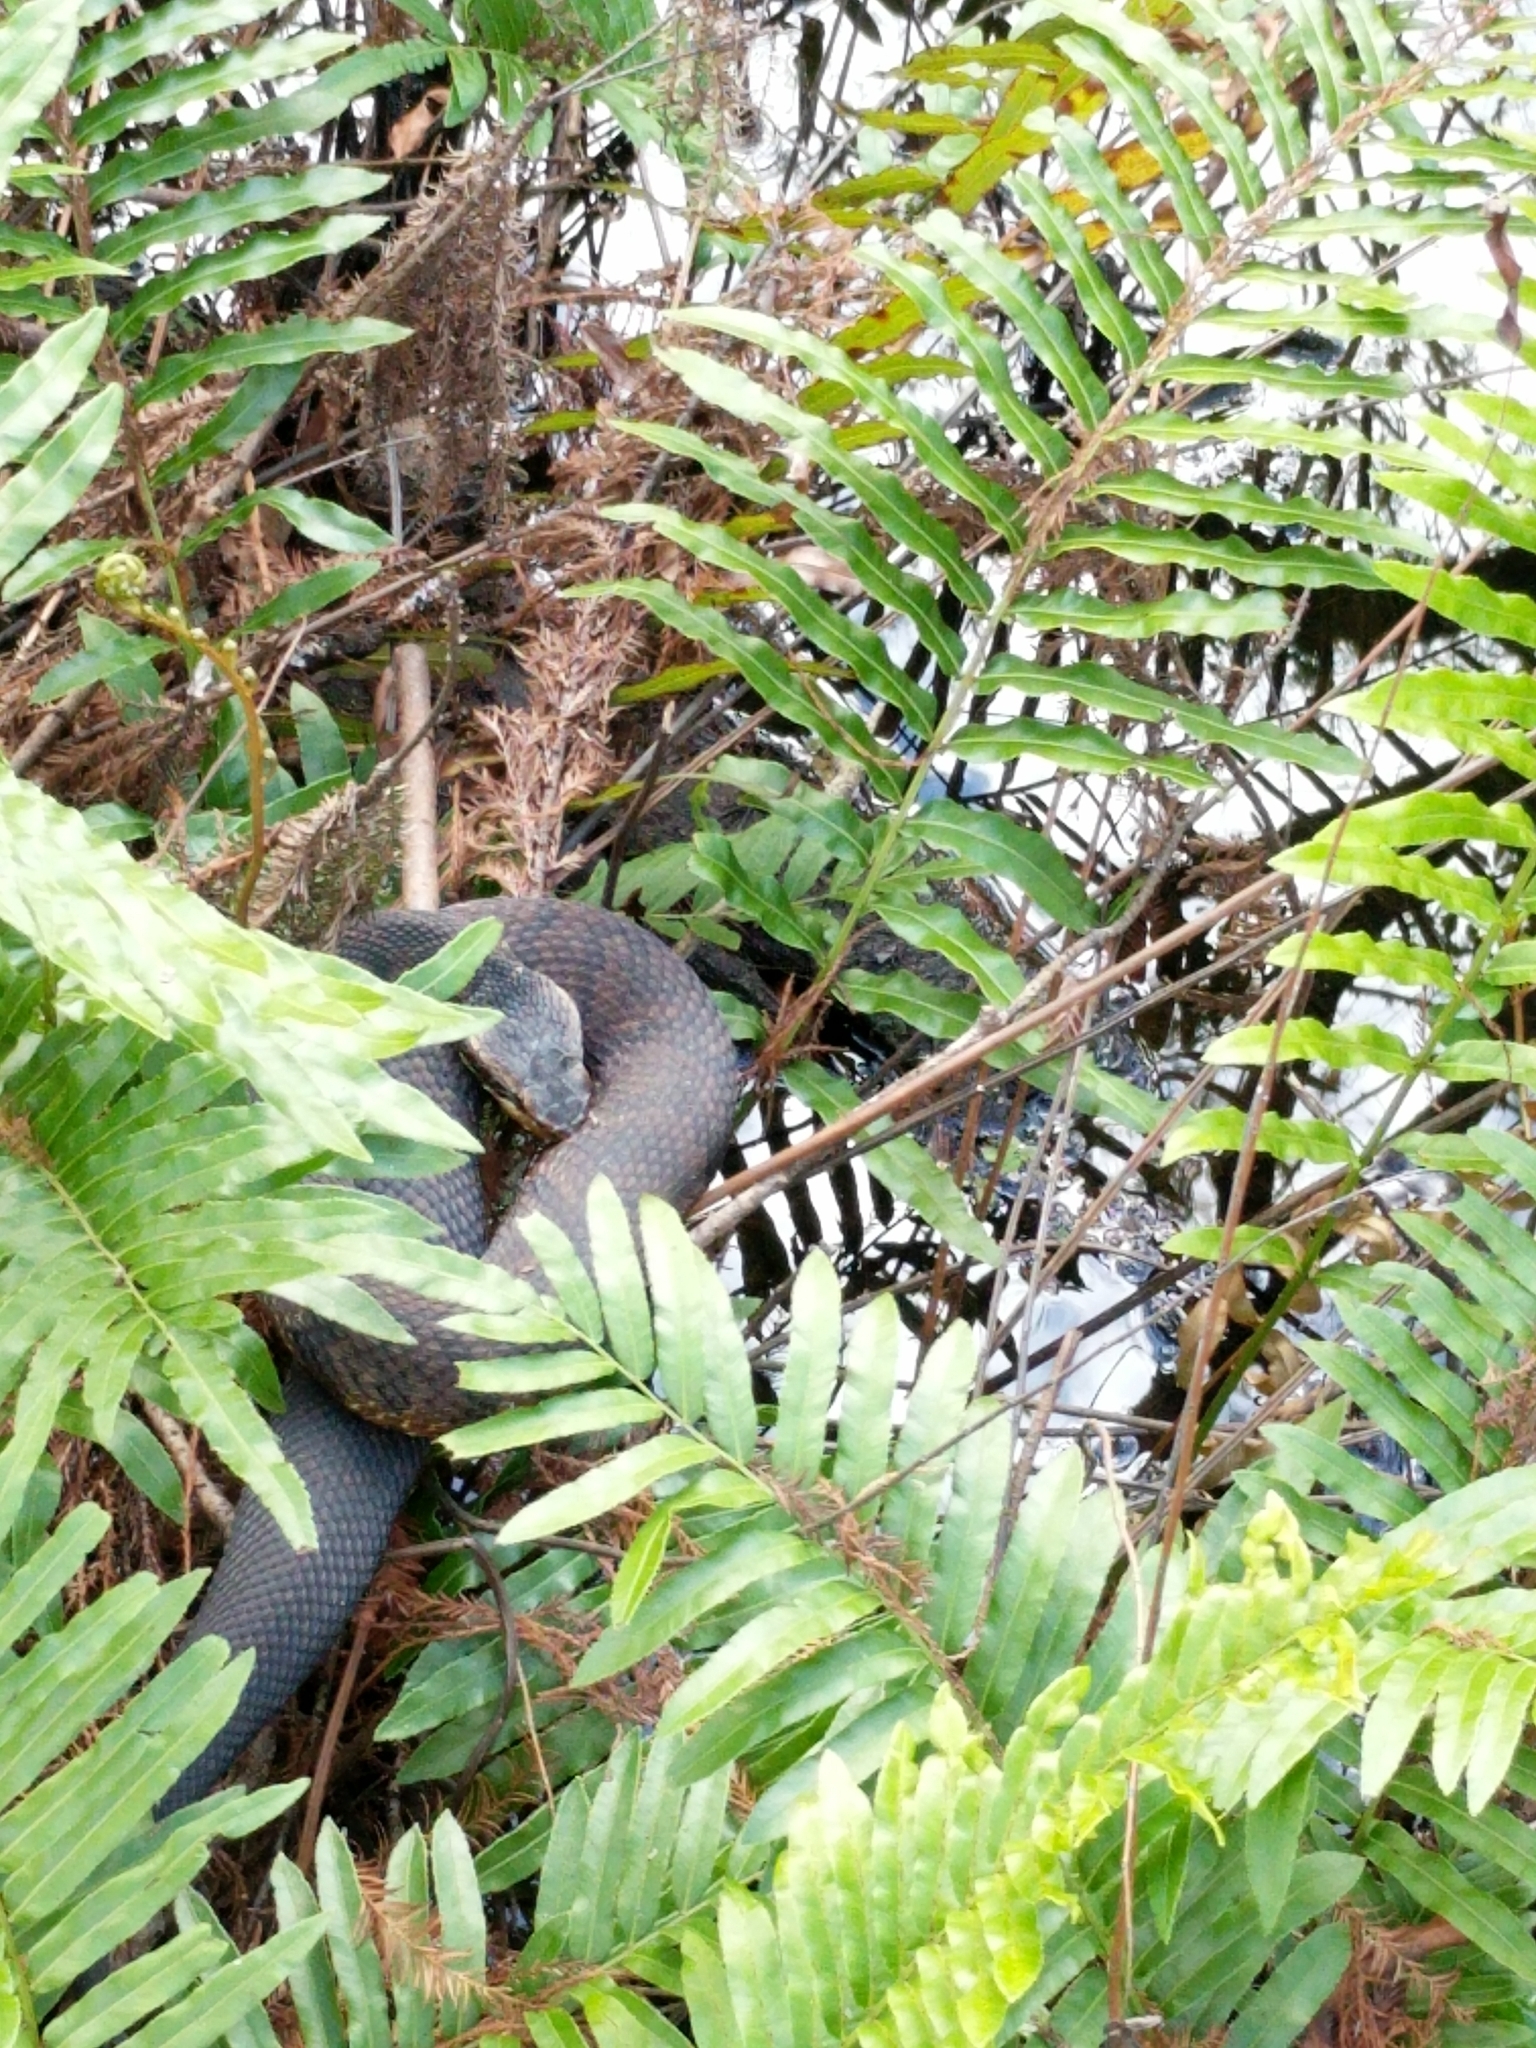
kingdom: Animalia
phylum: Chordata
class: Squamata
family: Viperidae
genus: Agkistrodon
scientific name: Agkistrodon conanti
